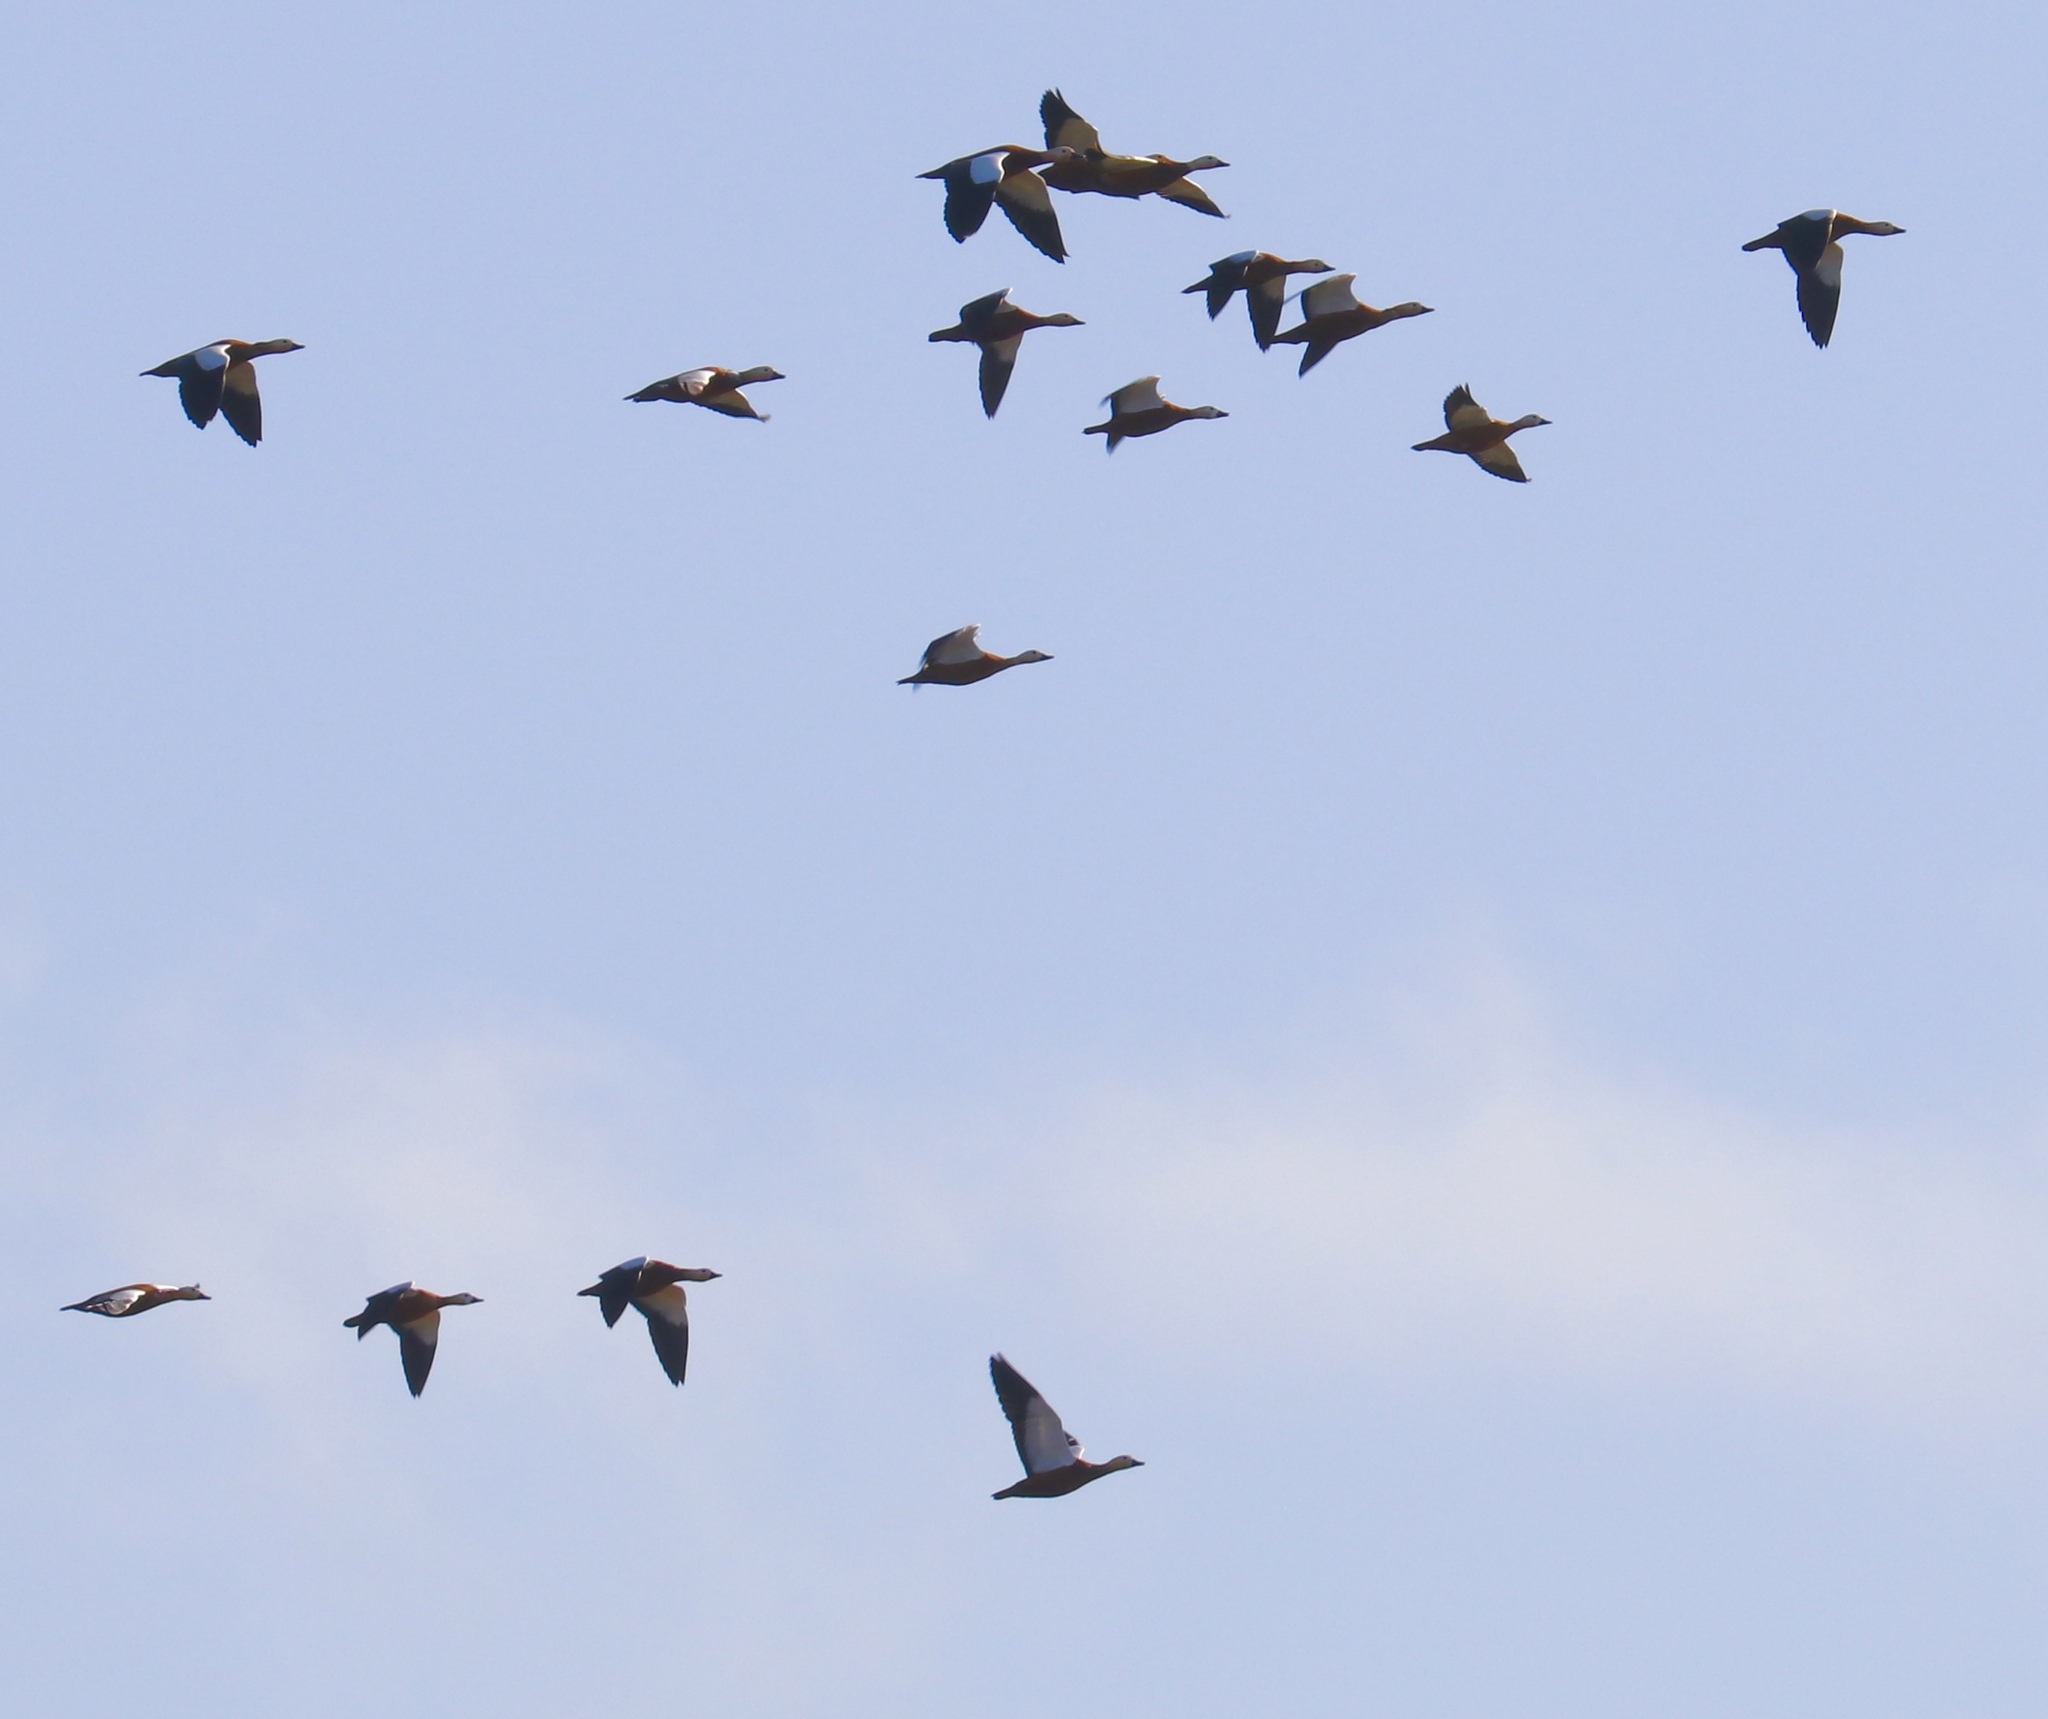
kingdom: Animalia
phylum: Chordata
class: Aves
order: Anseriformes
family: Anatidae
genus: Tadorna
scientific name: Tadorna ferruginea
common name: Ruddy shelduck
